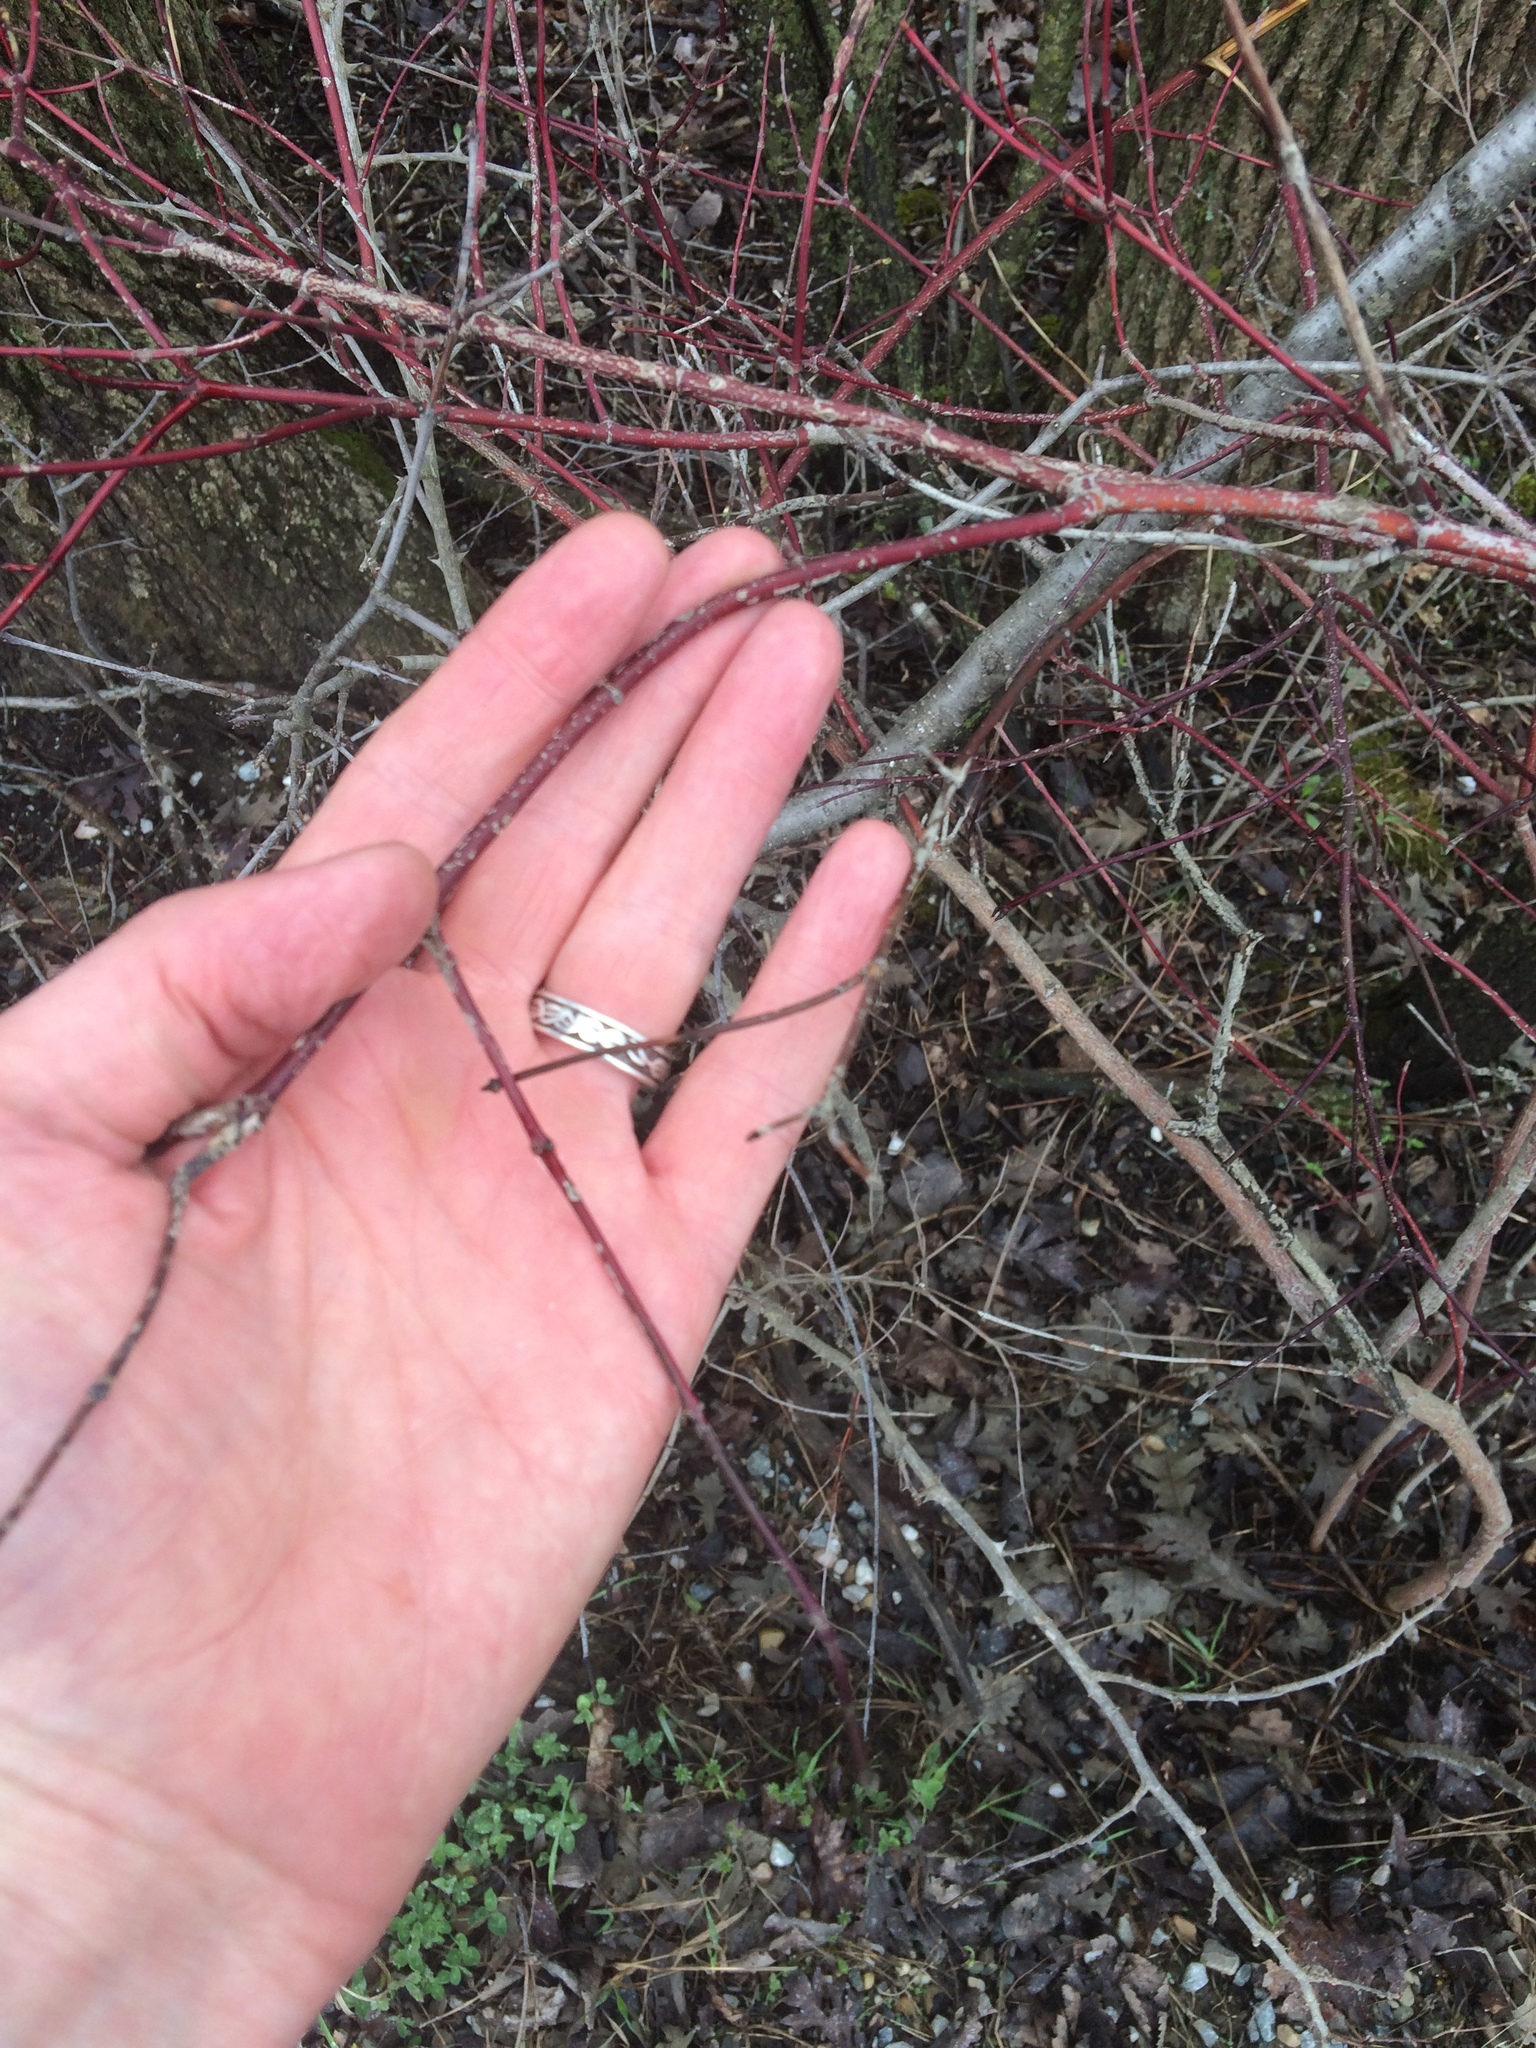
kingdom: Plantae
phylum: Tracheophyta
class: Magnoliopsida
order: Cornales
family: Cornaceae
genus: Cornus
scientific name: Cornus amomum
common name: Silky dogwood
